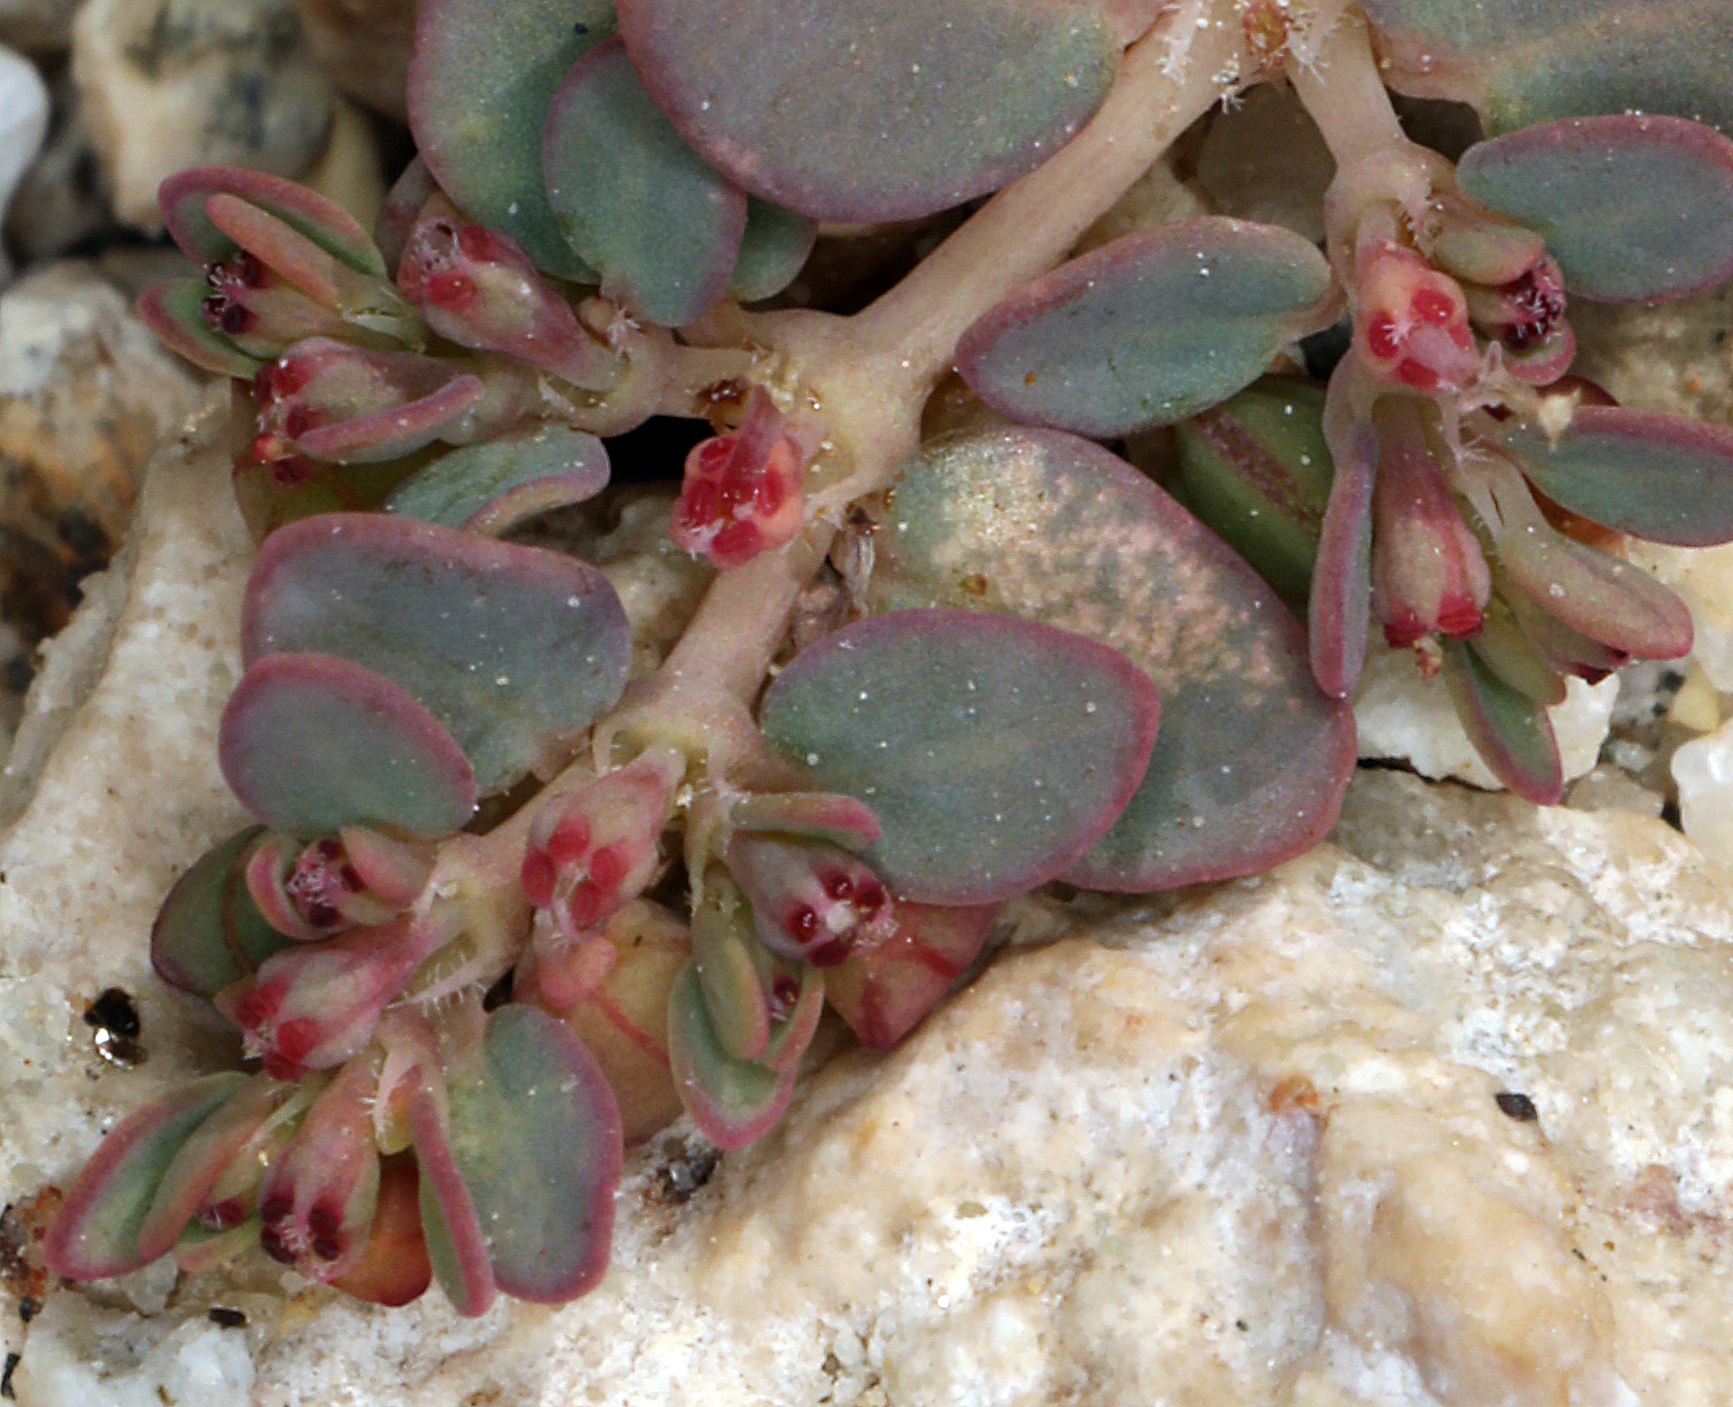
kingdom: Plantae
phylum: Tracheophyta
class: Magnoliopsida
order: Malpighiales
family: Euphorbiaceae
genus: Euphorbia
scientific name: Euphorbia micromera
